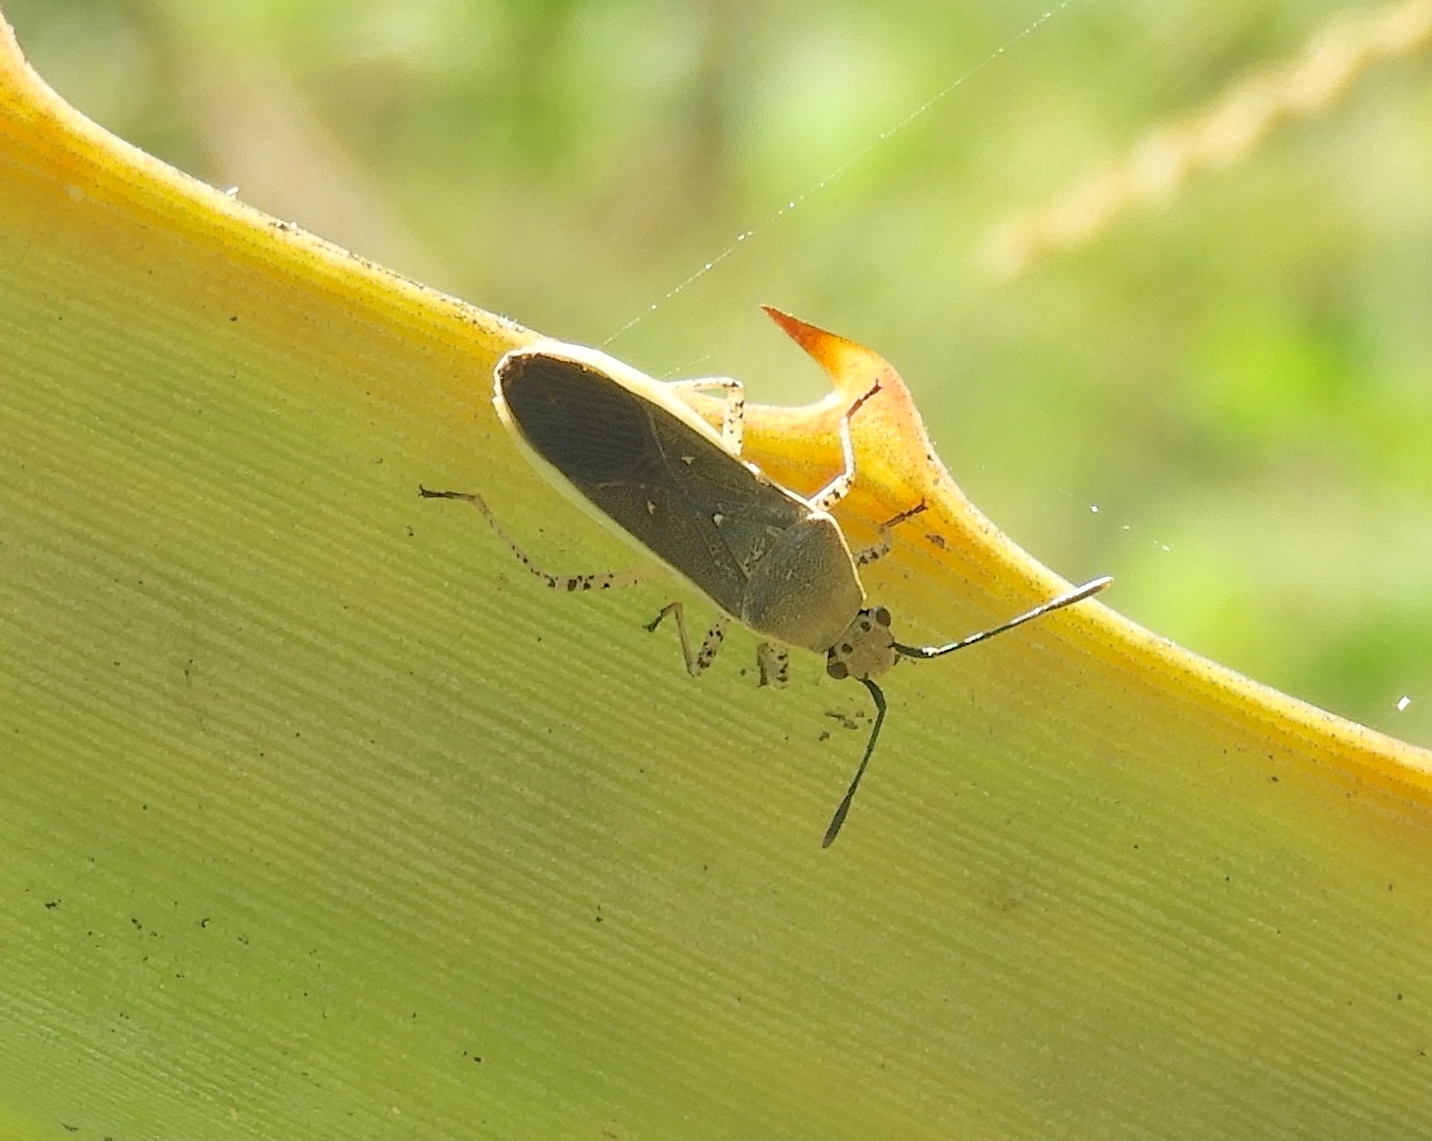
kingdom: Animalia
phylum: Arthropoda
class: Insecta
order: Hemiptera
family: Coreidae
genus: Catorhintha
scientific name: Catorhintha selector
